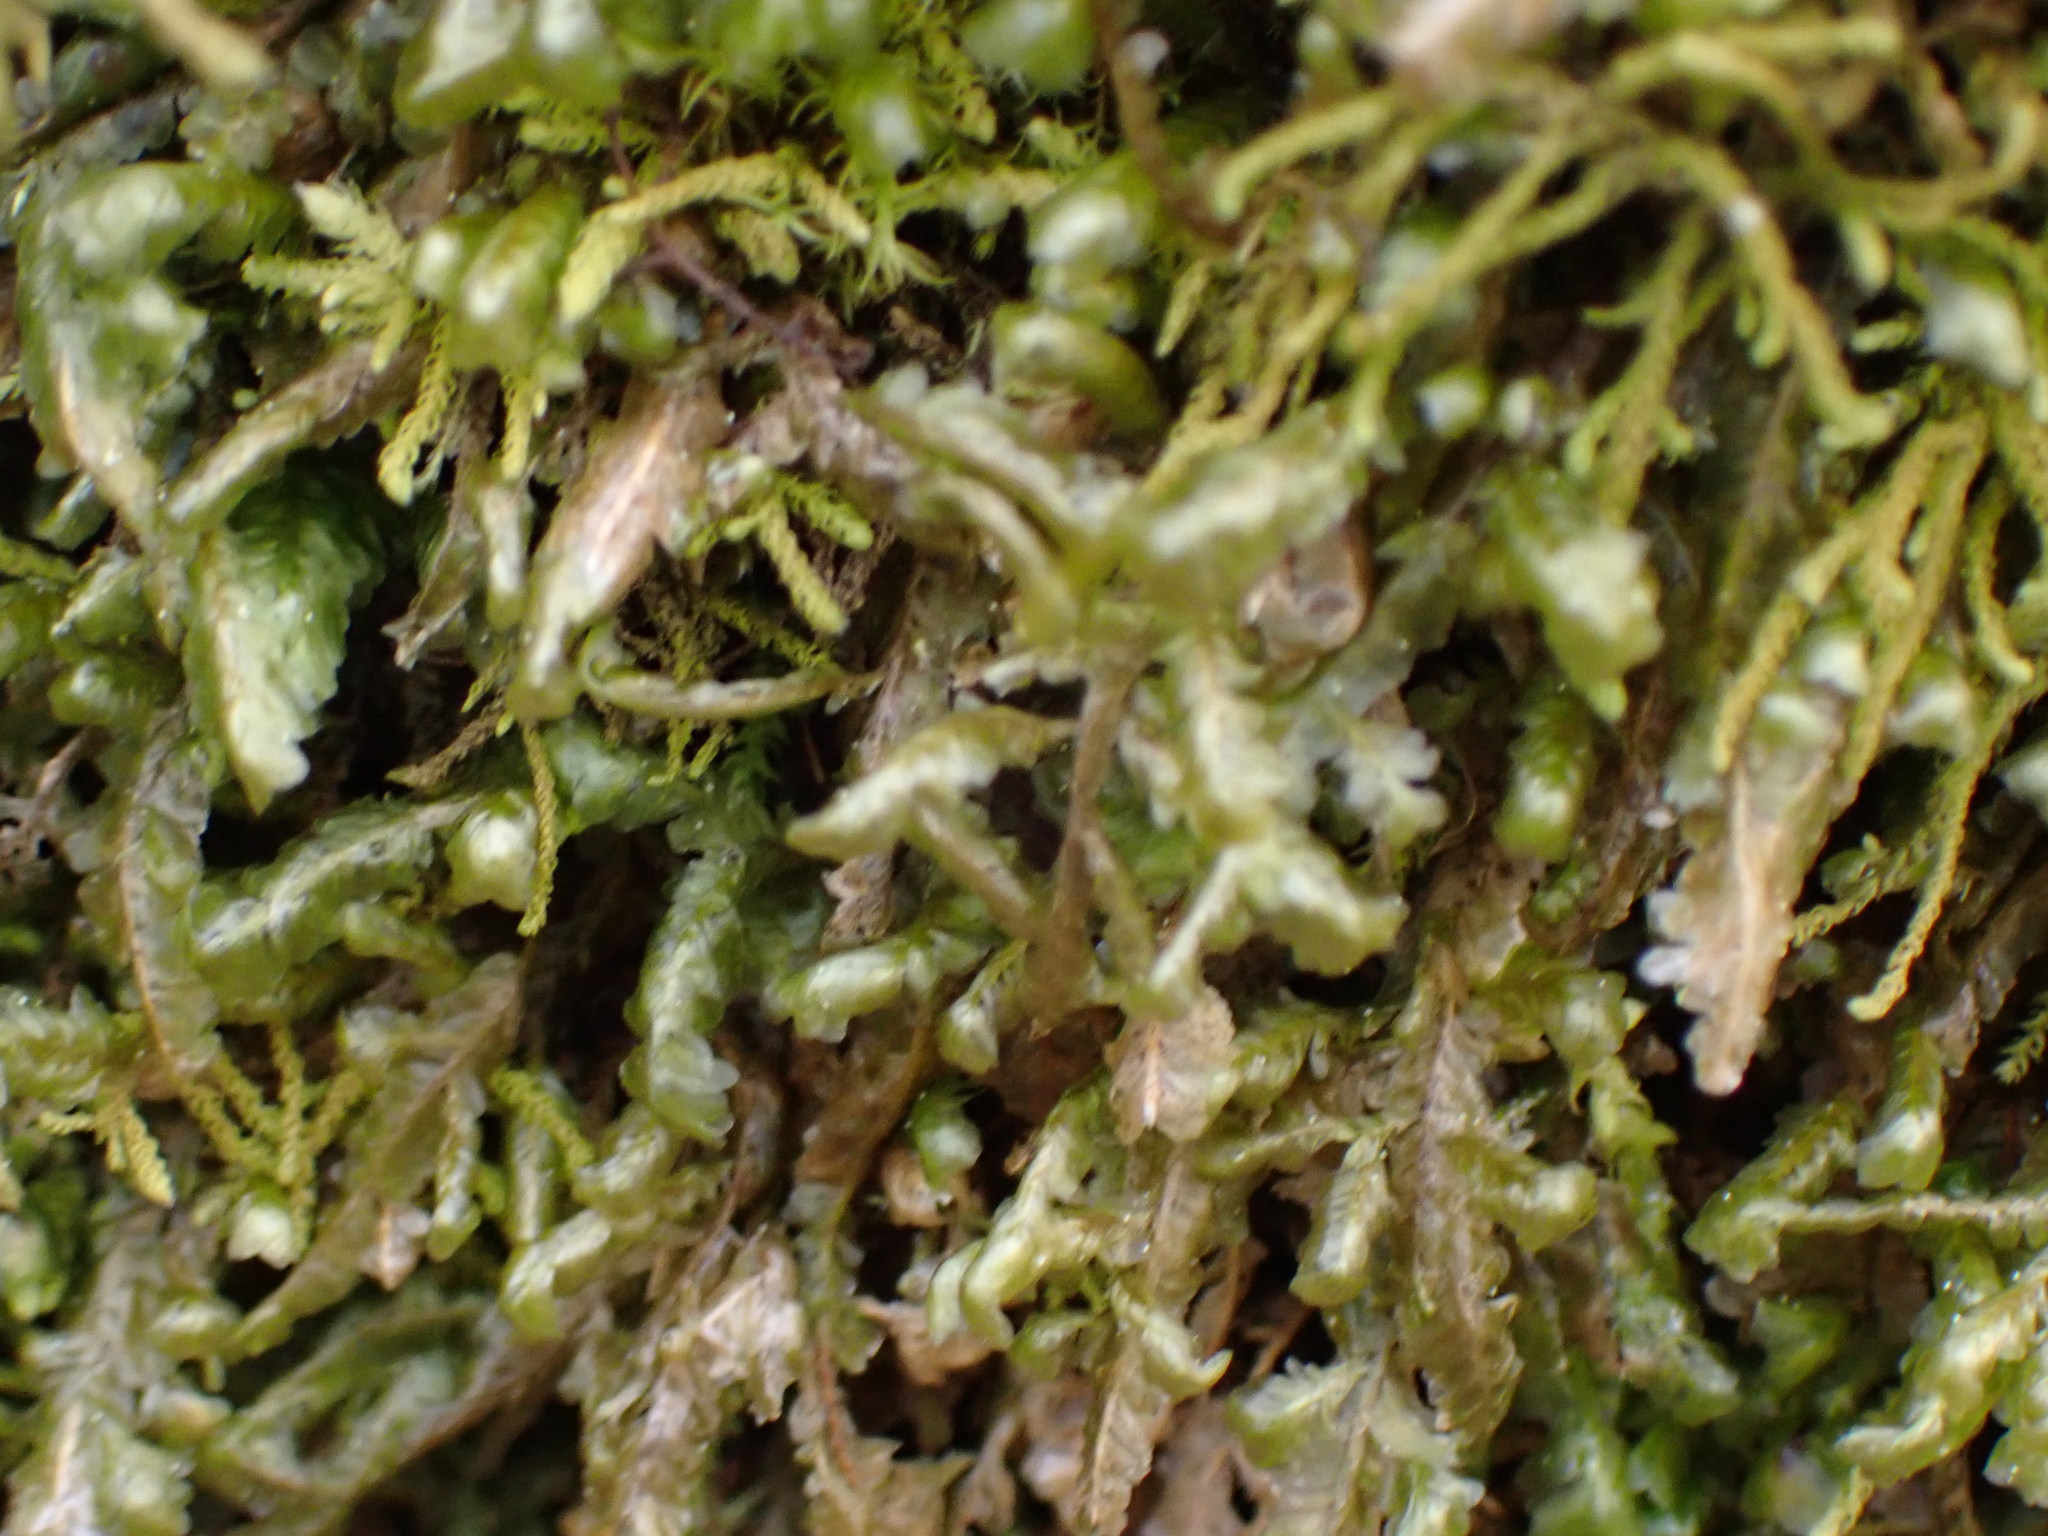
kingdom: Plantae
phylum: Bryophyta
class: Bryopsida
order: Hypnales
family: Neckeraceae
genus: Homalia
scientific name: Homalia trichomanoides
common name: Lime homalia moss
